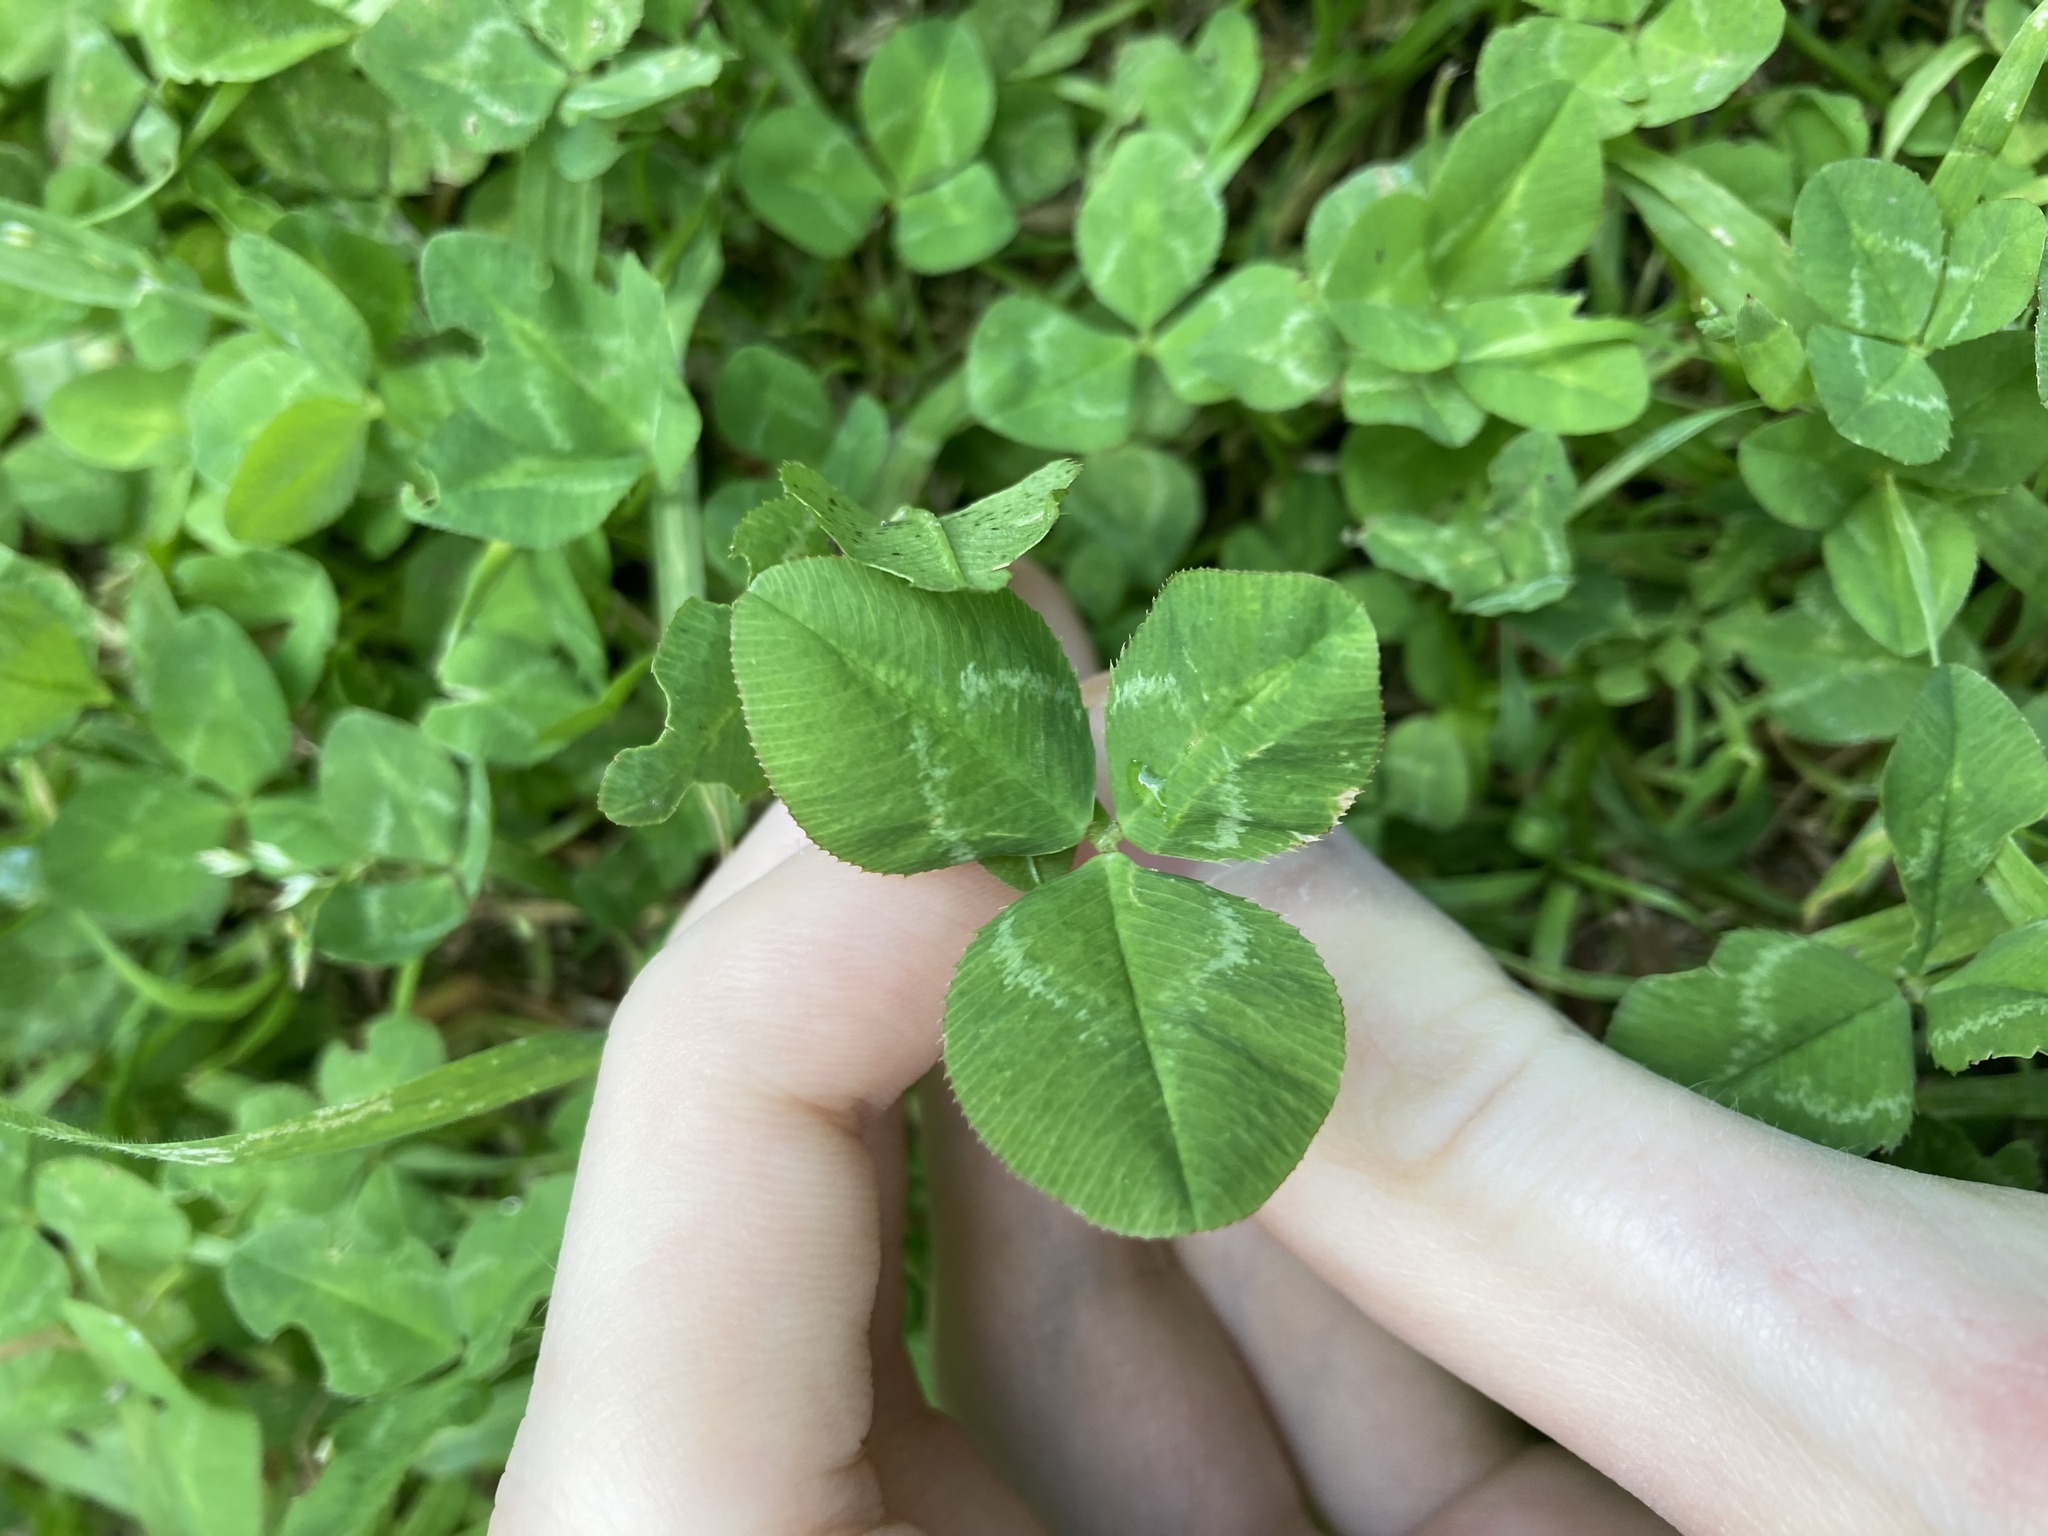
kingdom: Plantae
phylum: Tracheophyta
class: Magnoliopsida
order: Fabales
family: Fabaceae
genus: Trifolium
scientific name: Trifolium repens
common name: White clover
